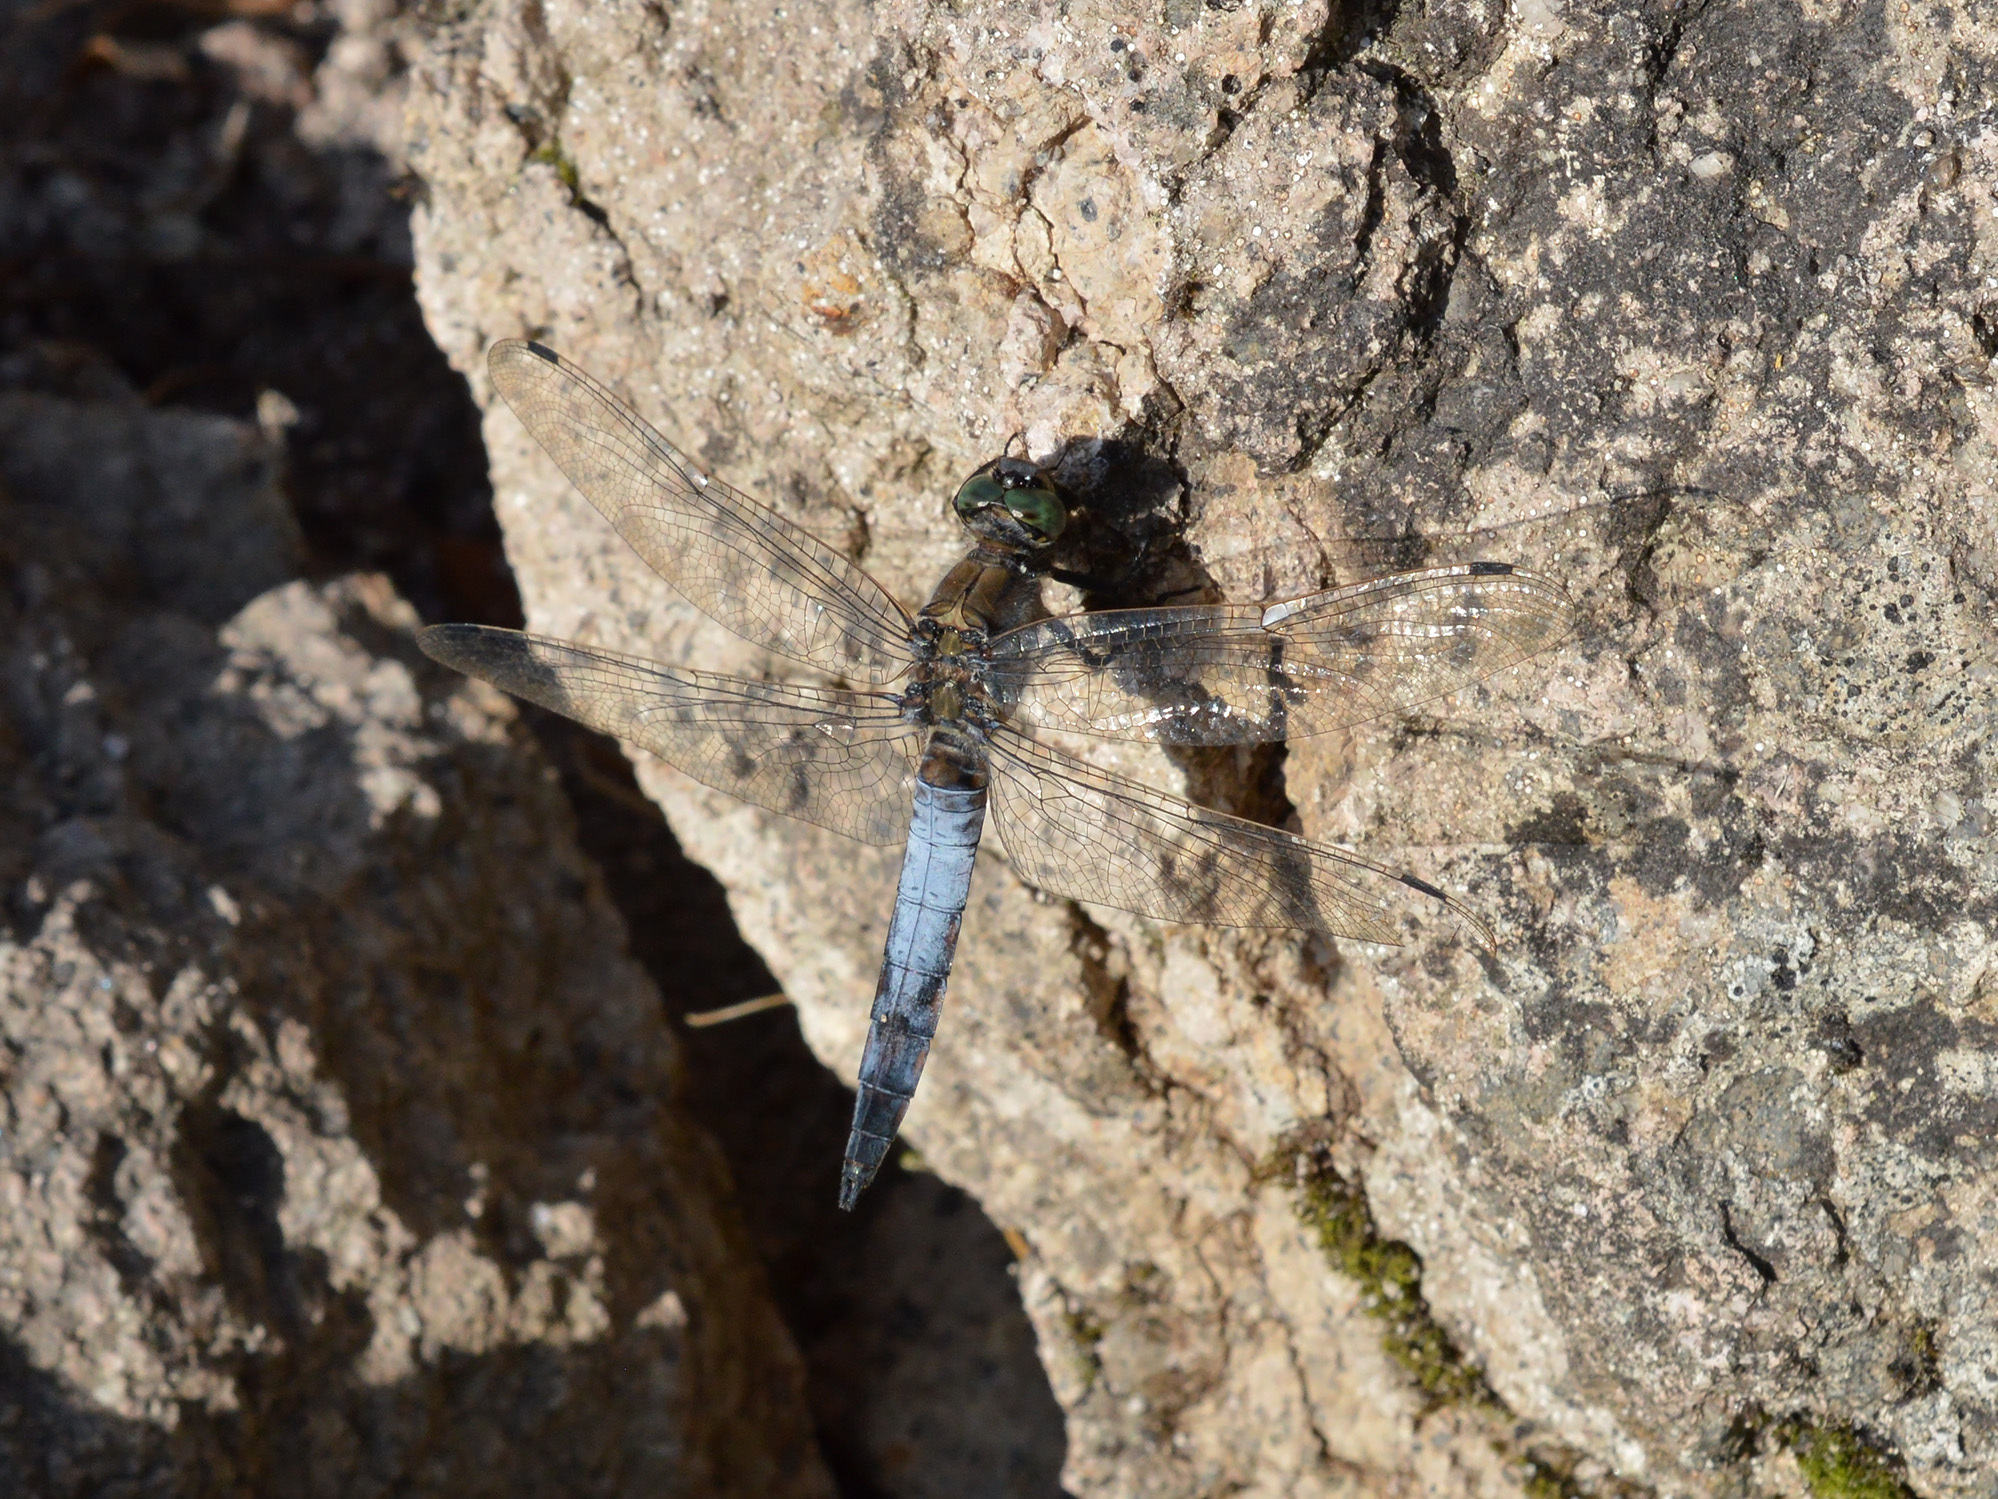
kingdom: Animalia
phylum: Arthropoda
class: Insecta
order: Odonata
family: Libellulidae
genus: Orthetrum
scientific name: Orthetrum cancellatum
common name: Black-tailed skimmer
